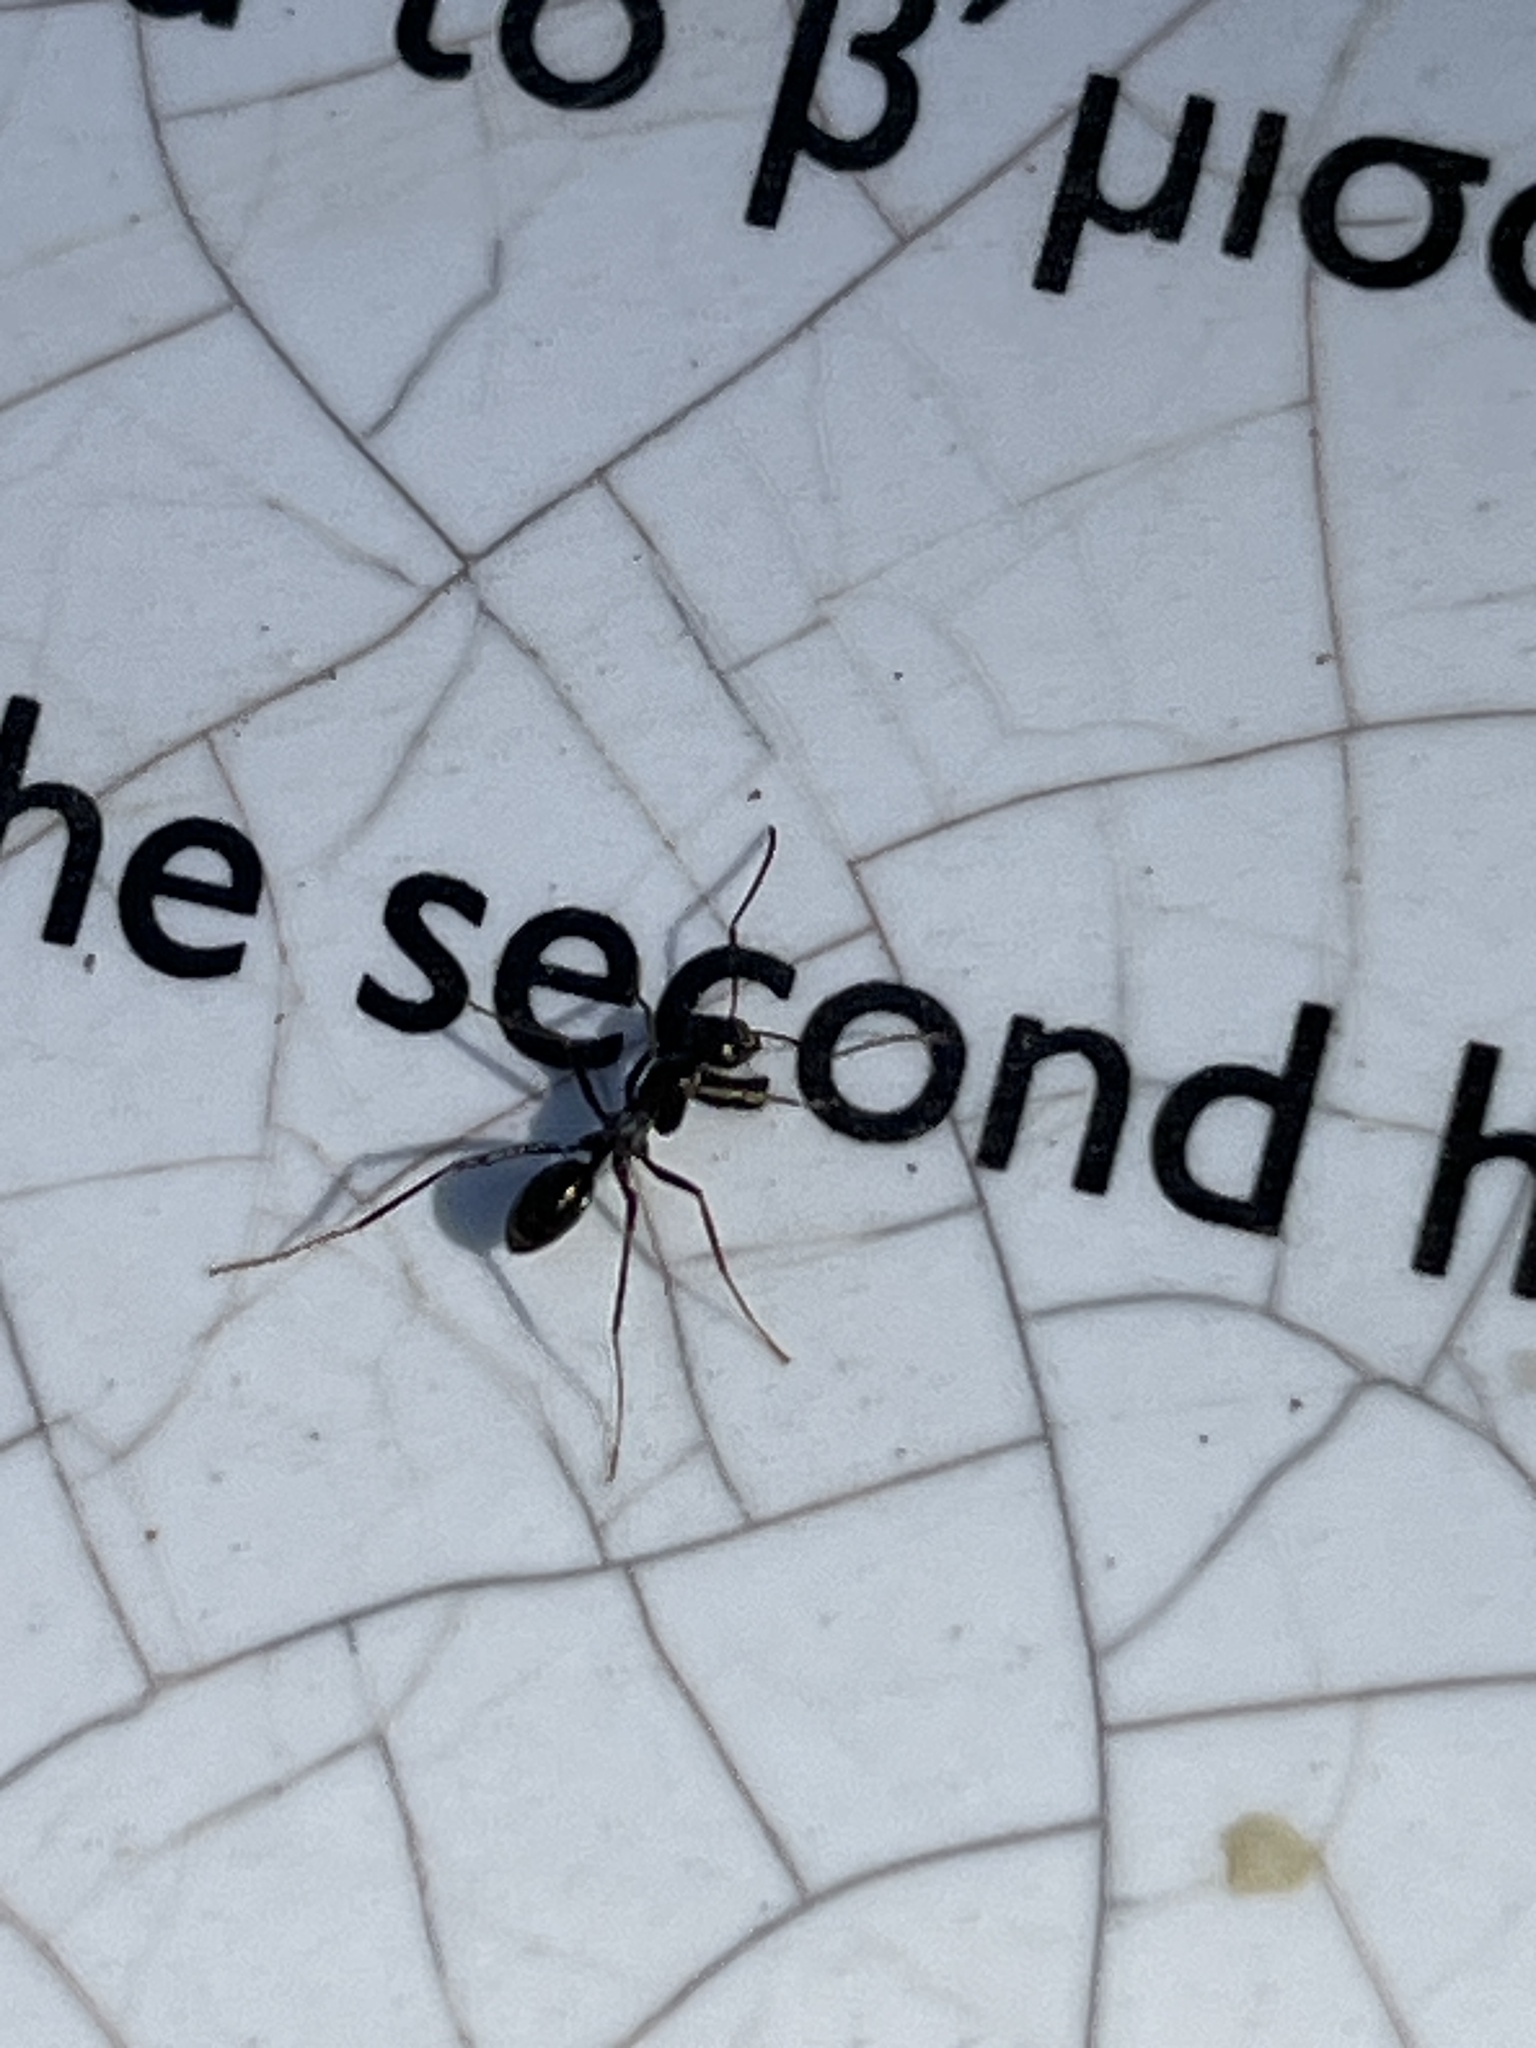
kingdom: Animalia
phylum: Arthropoda
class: Insecta
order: Hymenoptera
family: Formicidae
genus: Cataglyphis
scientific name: Cataglyphis hellenicus
